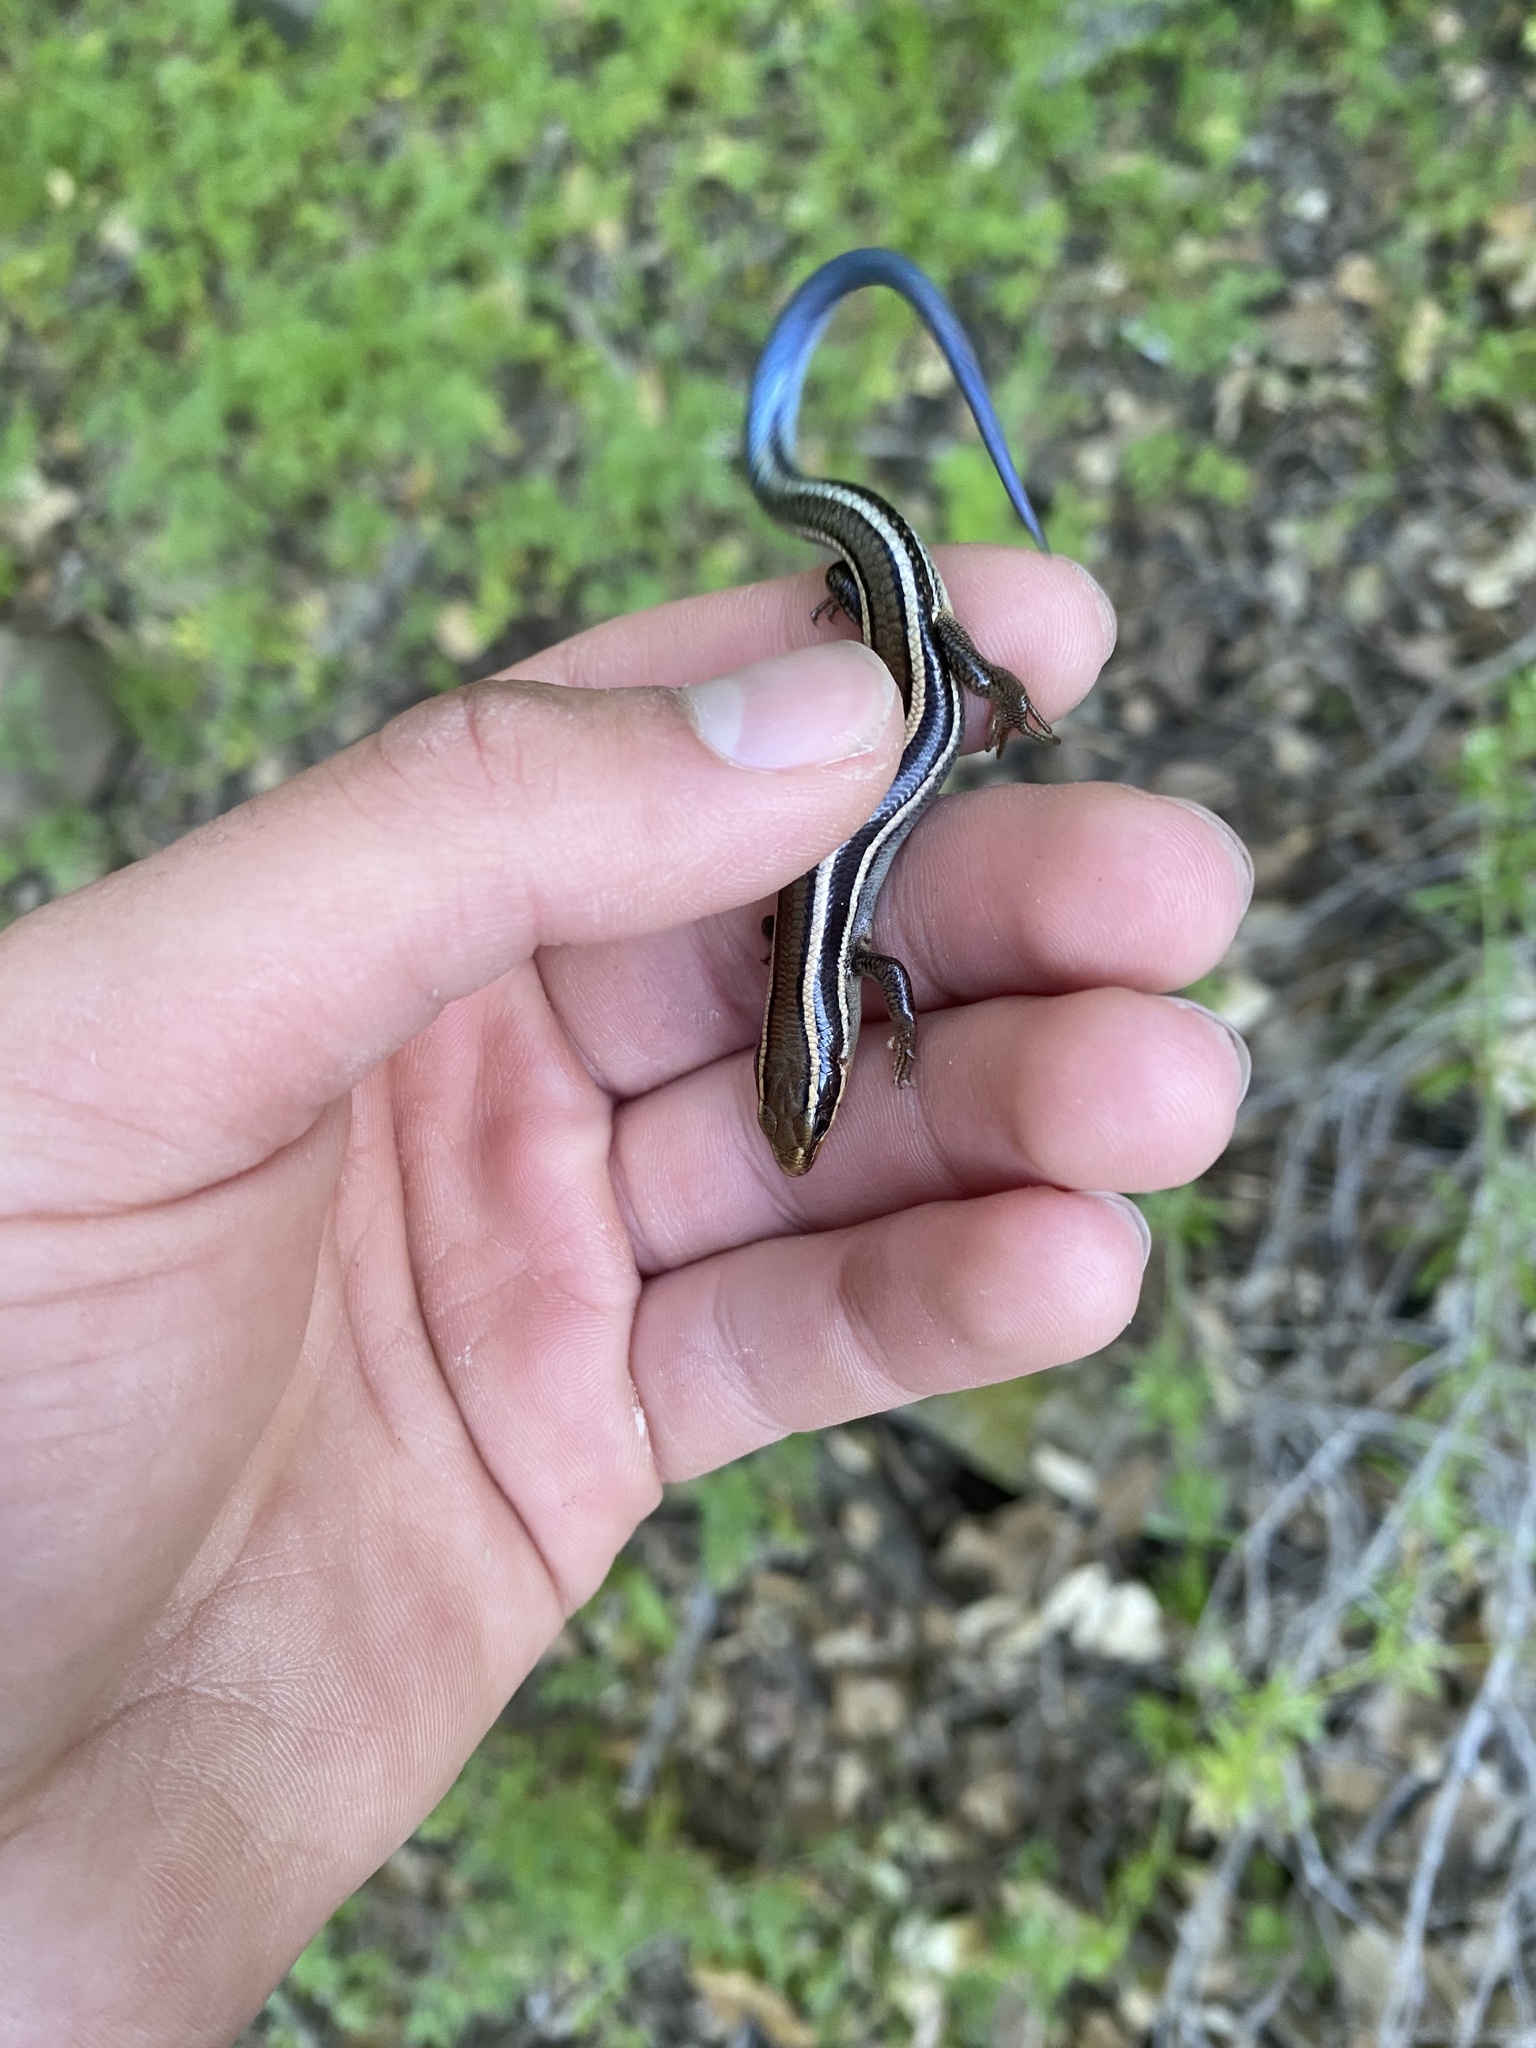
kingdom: Animalia
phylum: Chordata
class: Squamata
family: Scincidae
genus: Plestiodon
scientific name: Plestiodon skiltonianus
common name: Coronado island skink [interparietalis]
